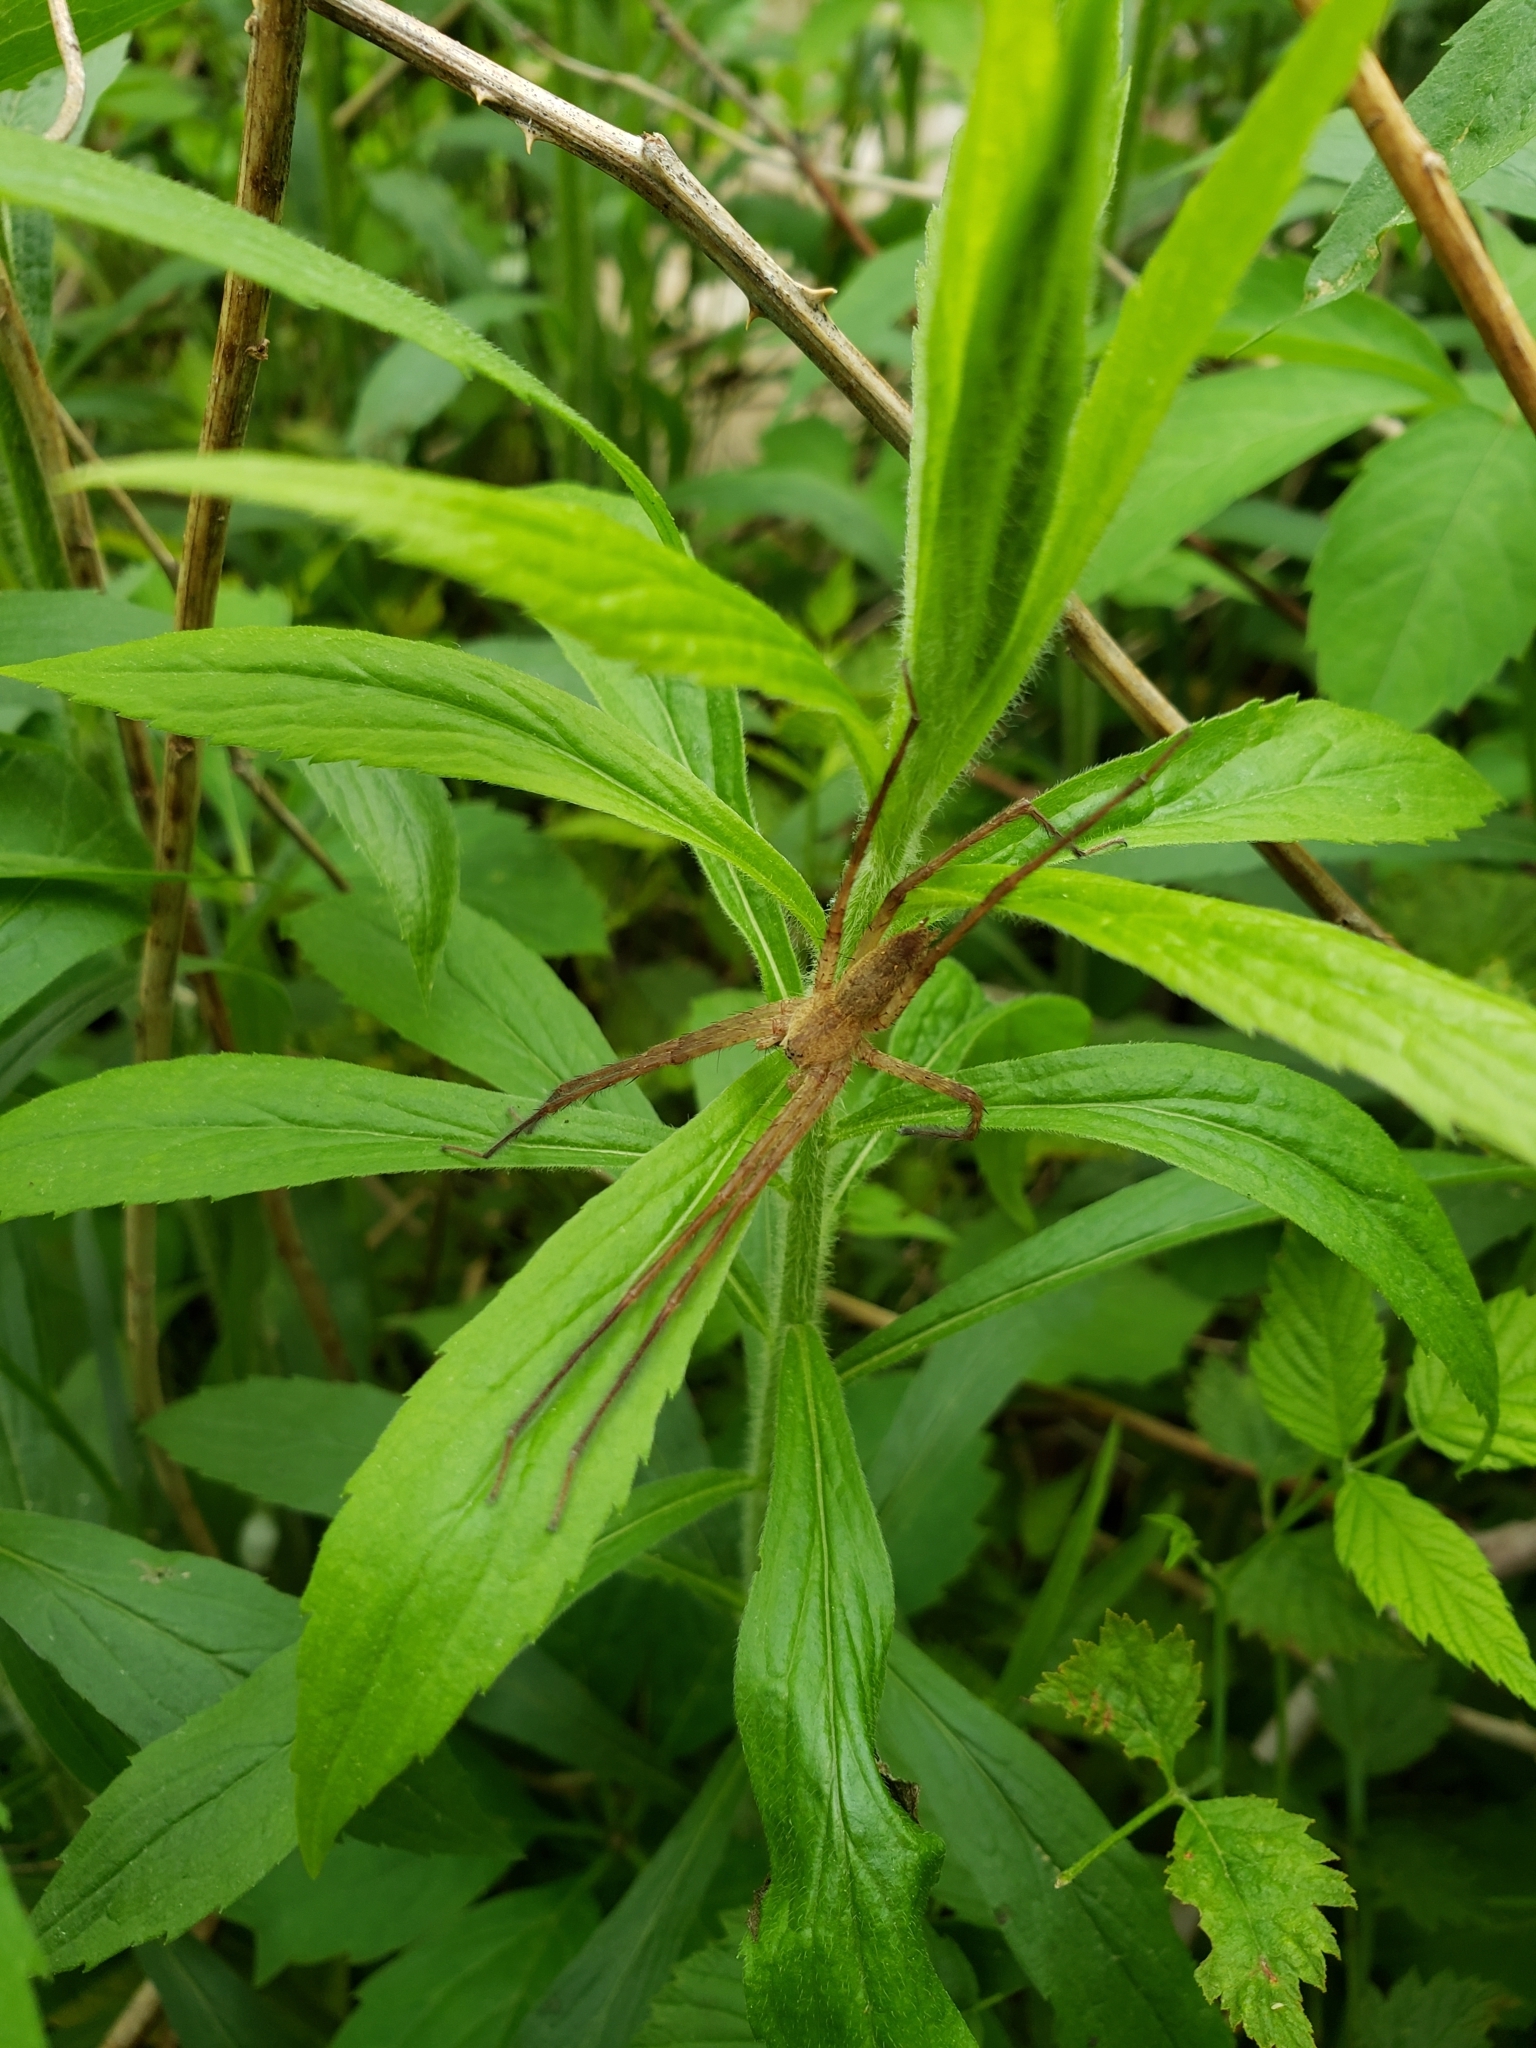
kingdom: Animalia
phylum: Arthropoda
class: Arachnida
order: Araneae
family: Pisauridae
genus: Pisaurina
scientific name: Pisaurina mira
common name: American nursery web spider
